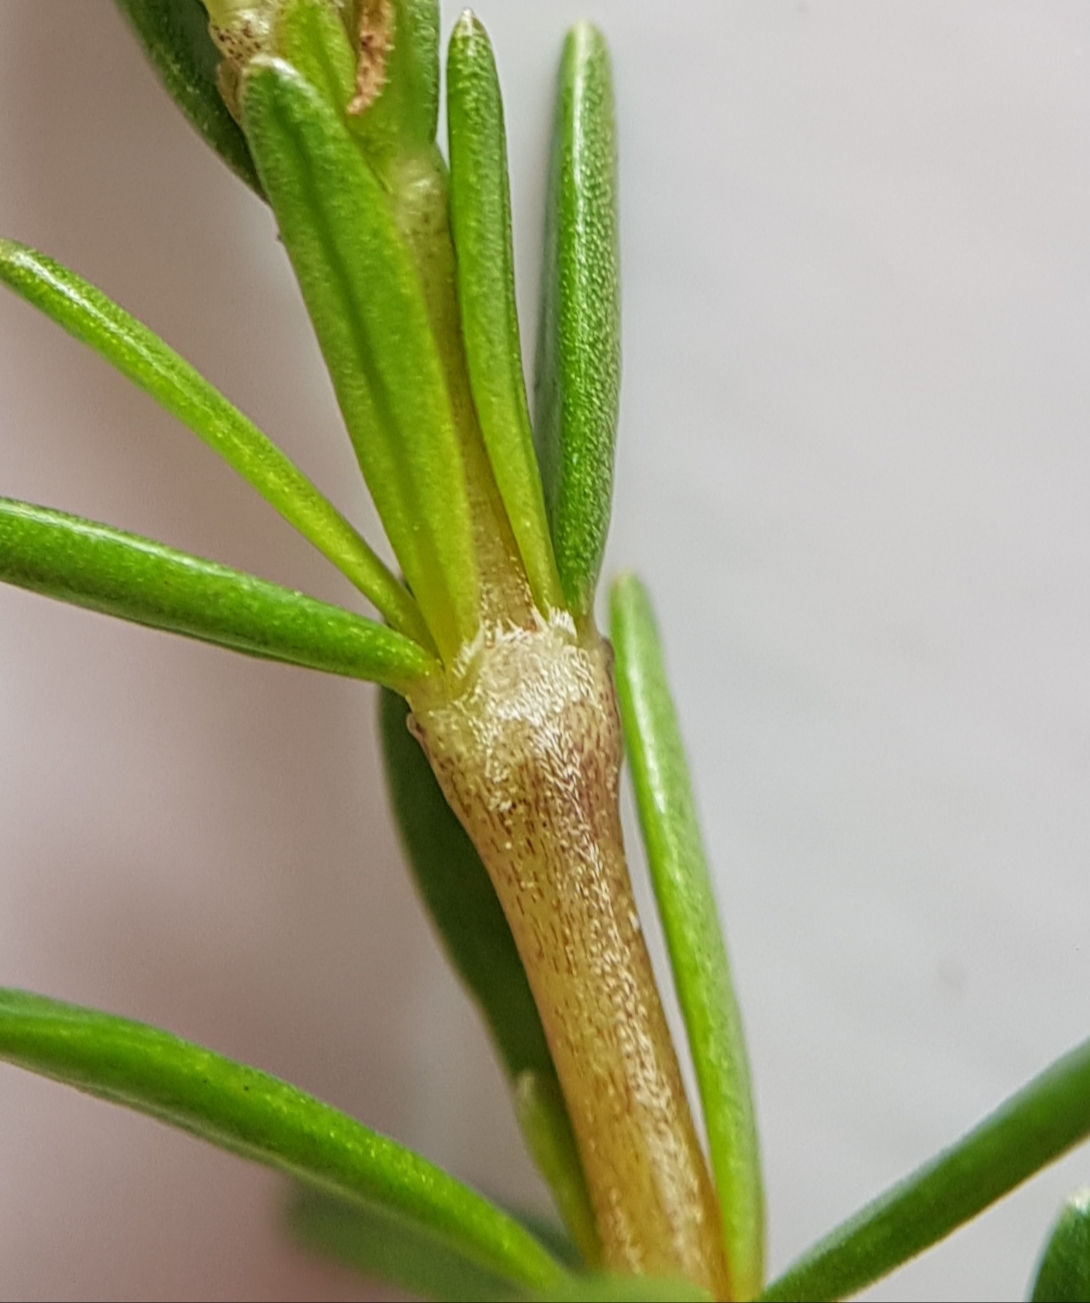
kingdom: Plantae
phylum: Tracheophyta
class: Magnoliopsida
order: Gentianales
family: Rubiaceae
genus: Coprosma
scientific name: Coprosma acerosa
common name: Sand coprosma
